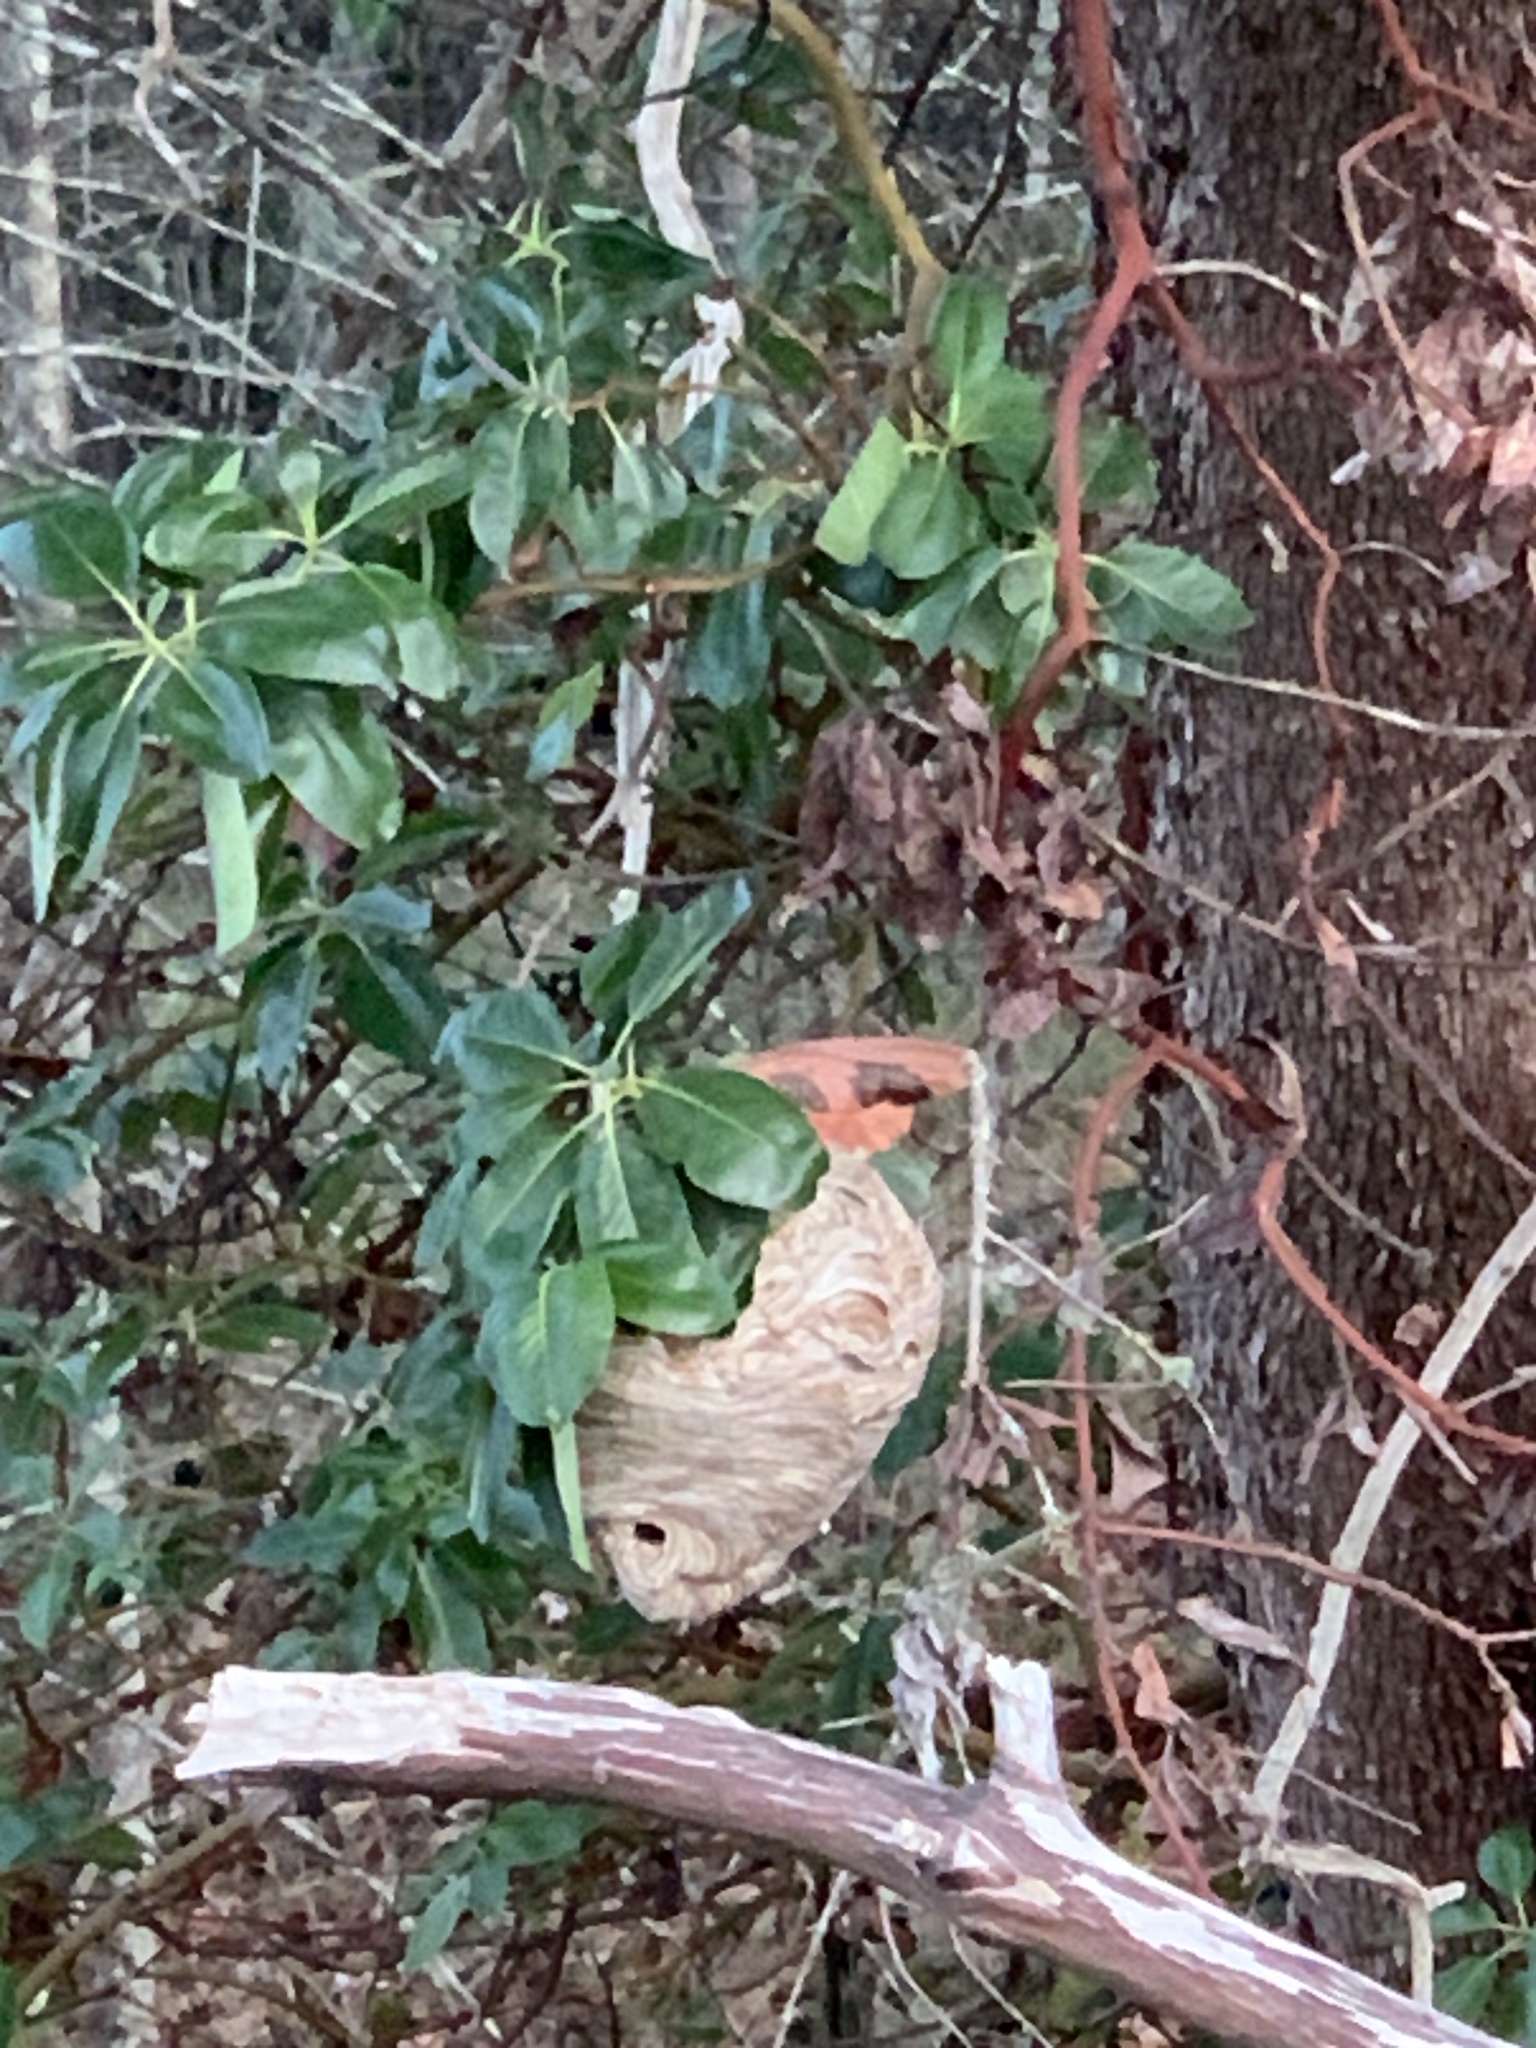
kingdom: Animalia
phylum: Arthropoda
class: Insecta
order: Hymenoptera
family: Vespidae
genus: Dolichovespula
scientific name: Dolichovespula
